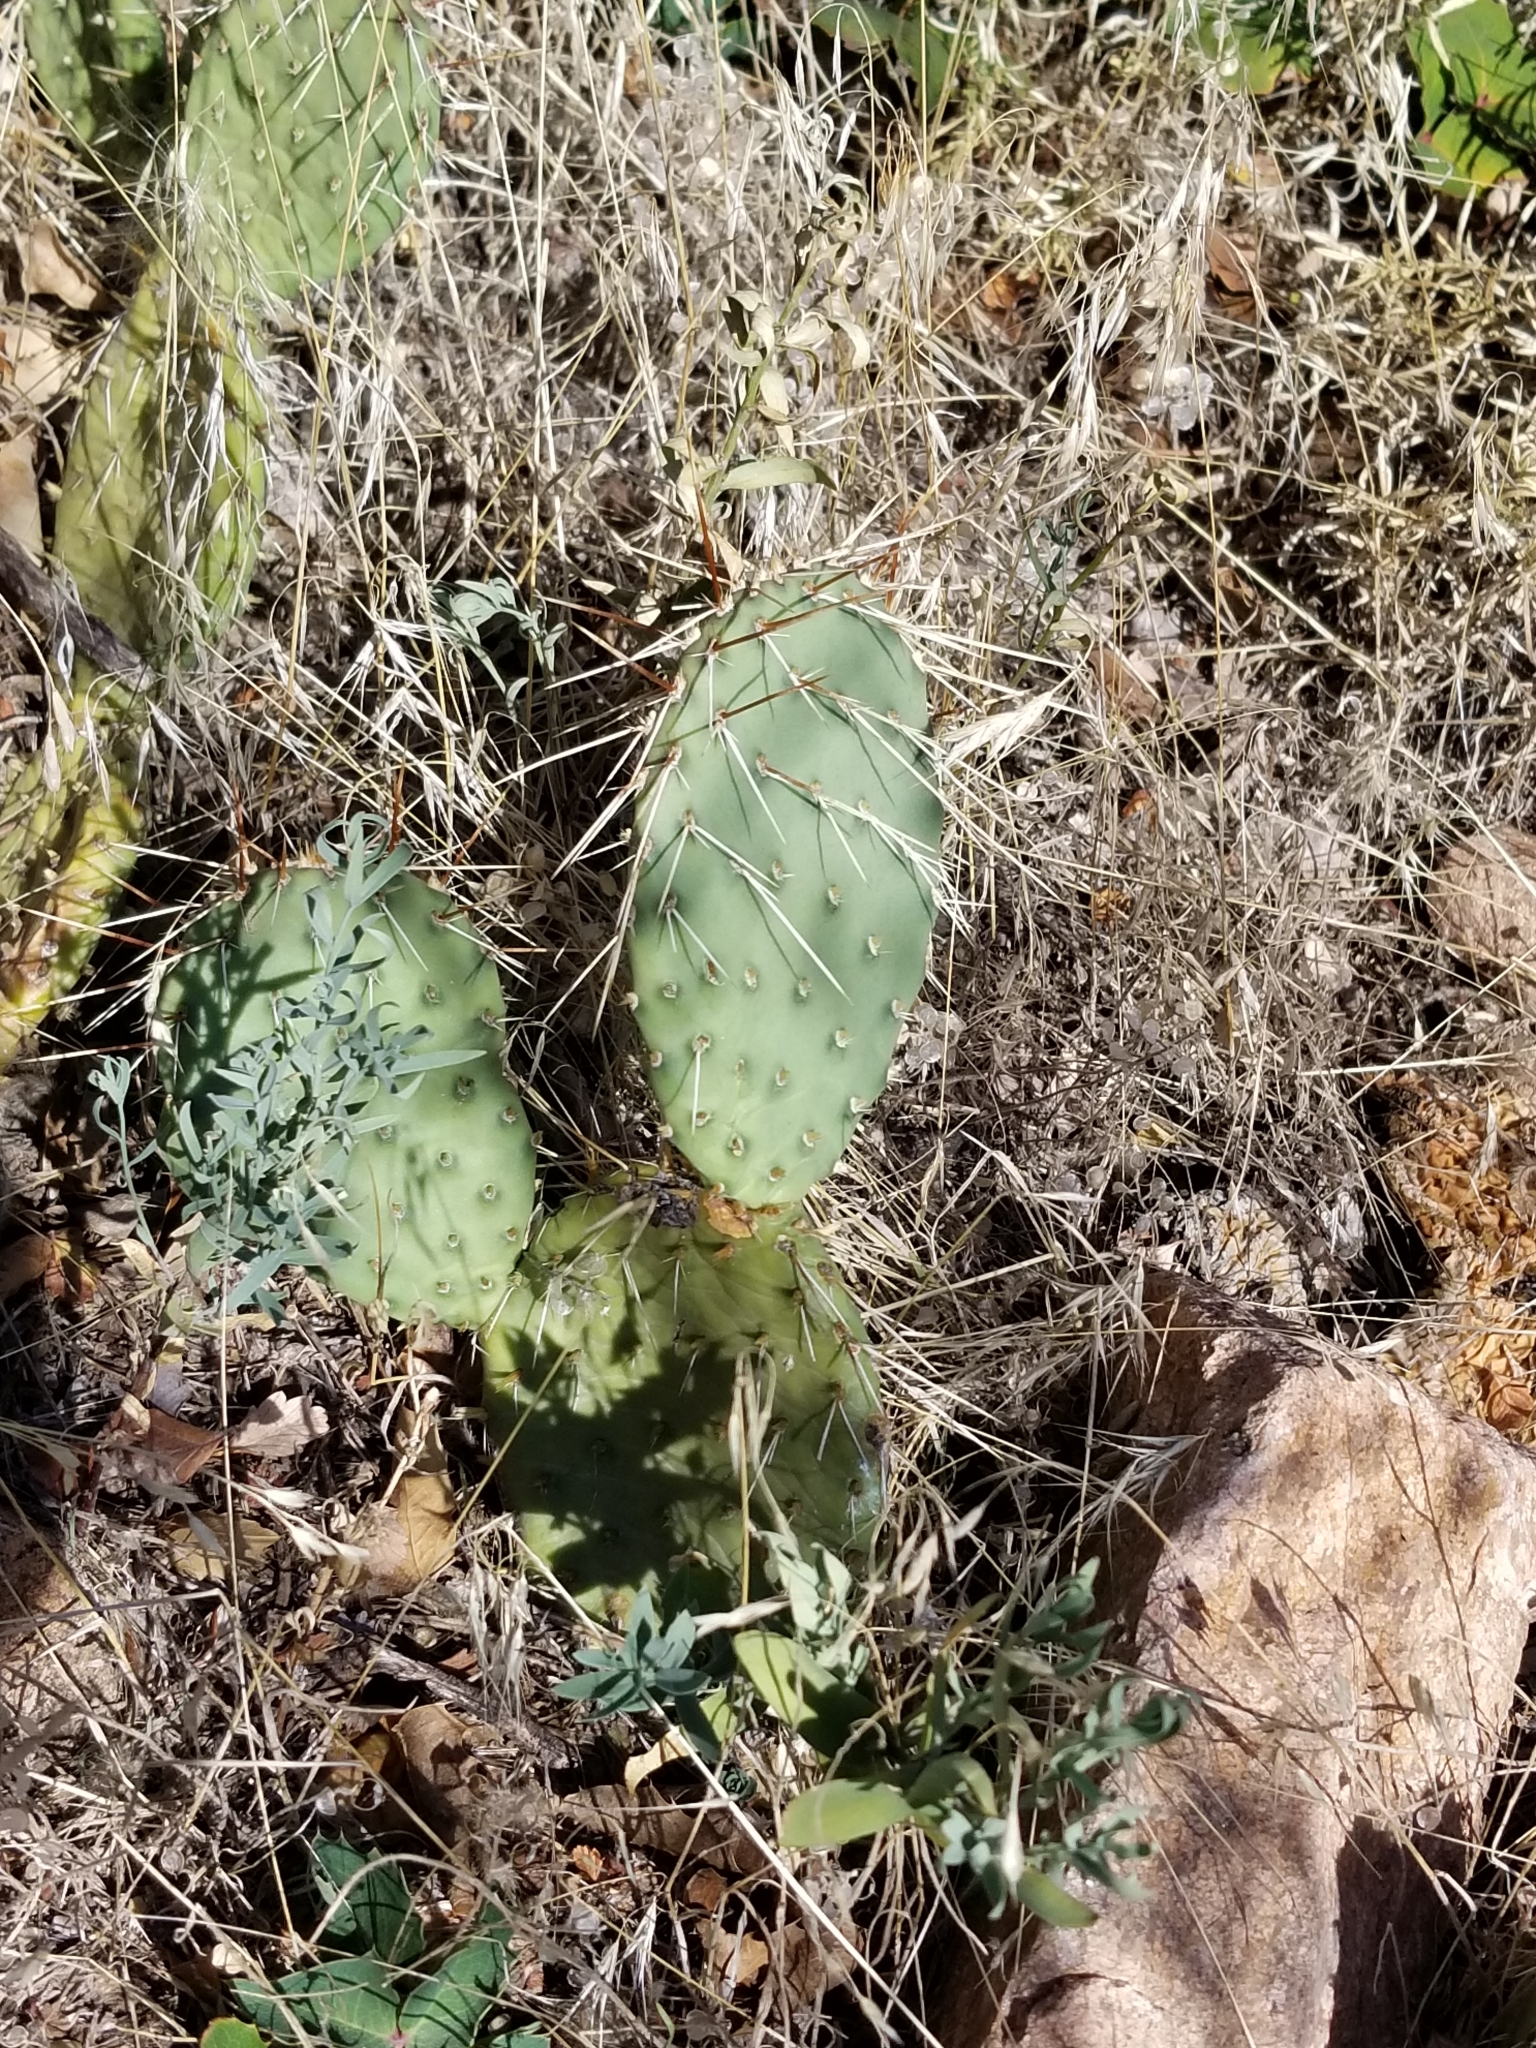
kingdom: Plantae
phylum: Tracheophyta
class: Magnoliopsida
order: Caryophyllales
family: Cactaceae
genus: Opuntia
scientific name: Opuntia polyacantha
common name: Plains prickly-pear
